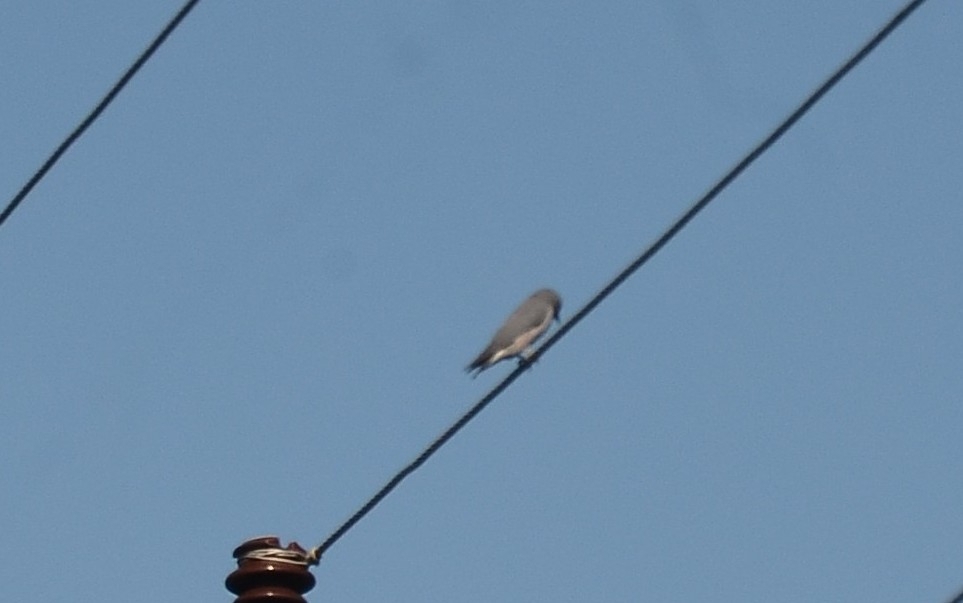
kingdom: Animalia
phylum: Chordata
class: Aves
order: Passeriformes
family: Artamidae
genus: Artamus
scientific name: Artamus fuscus
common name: Ashy woodswallow
